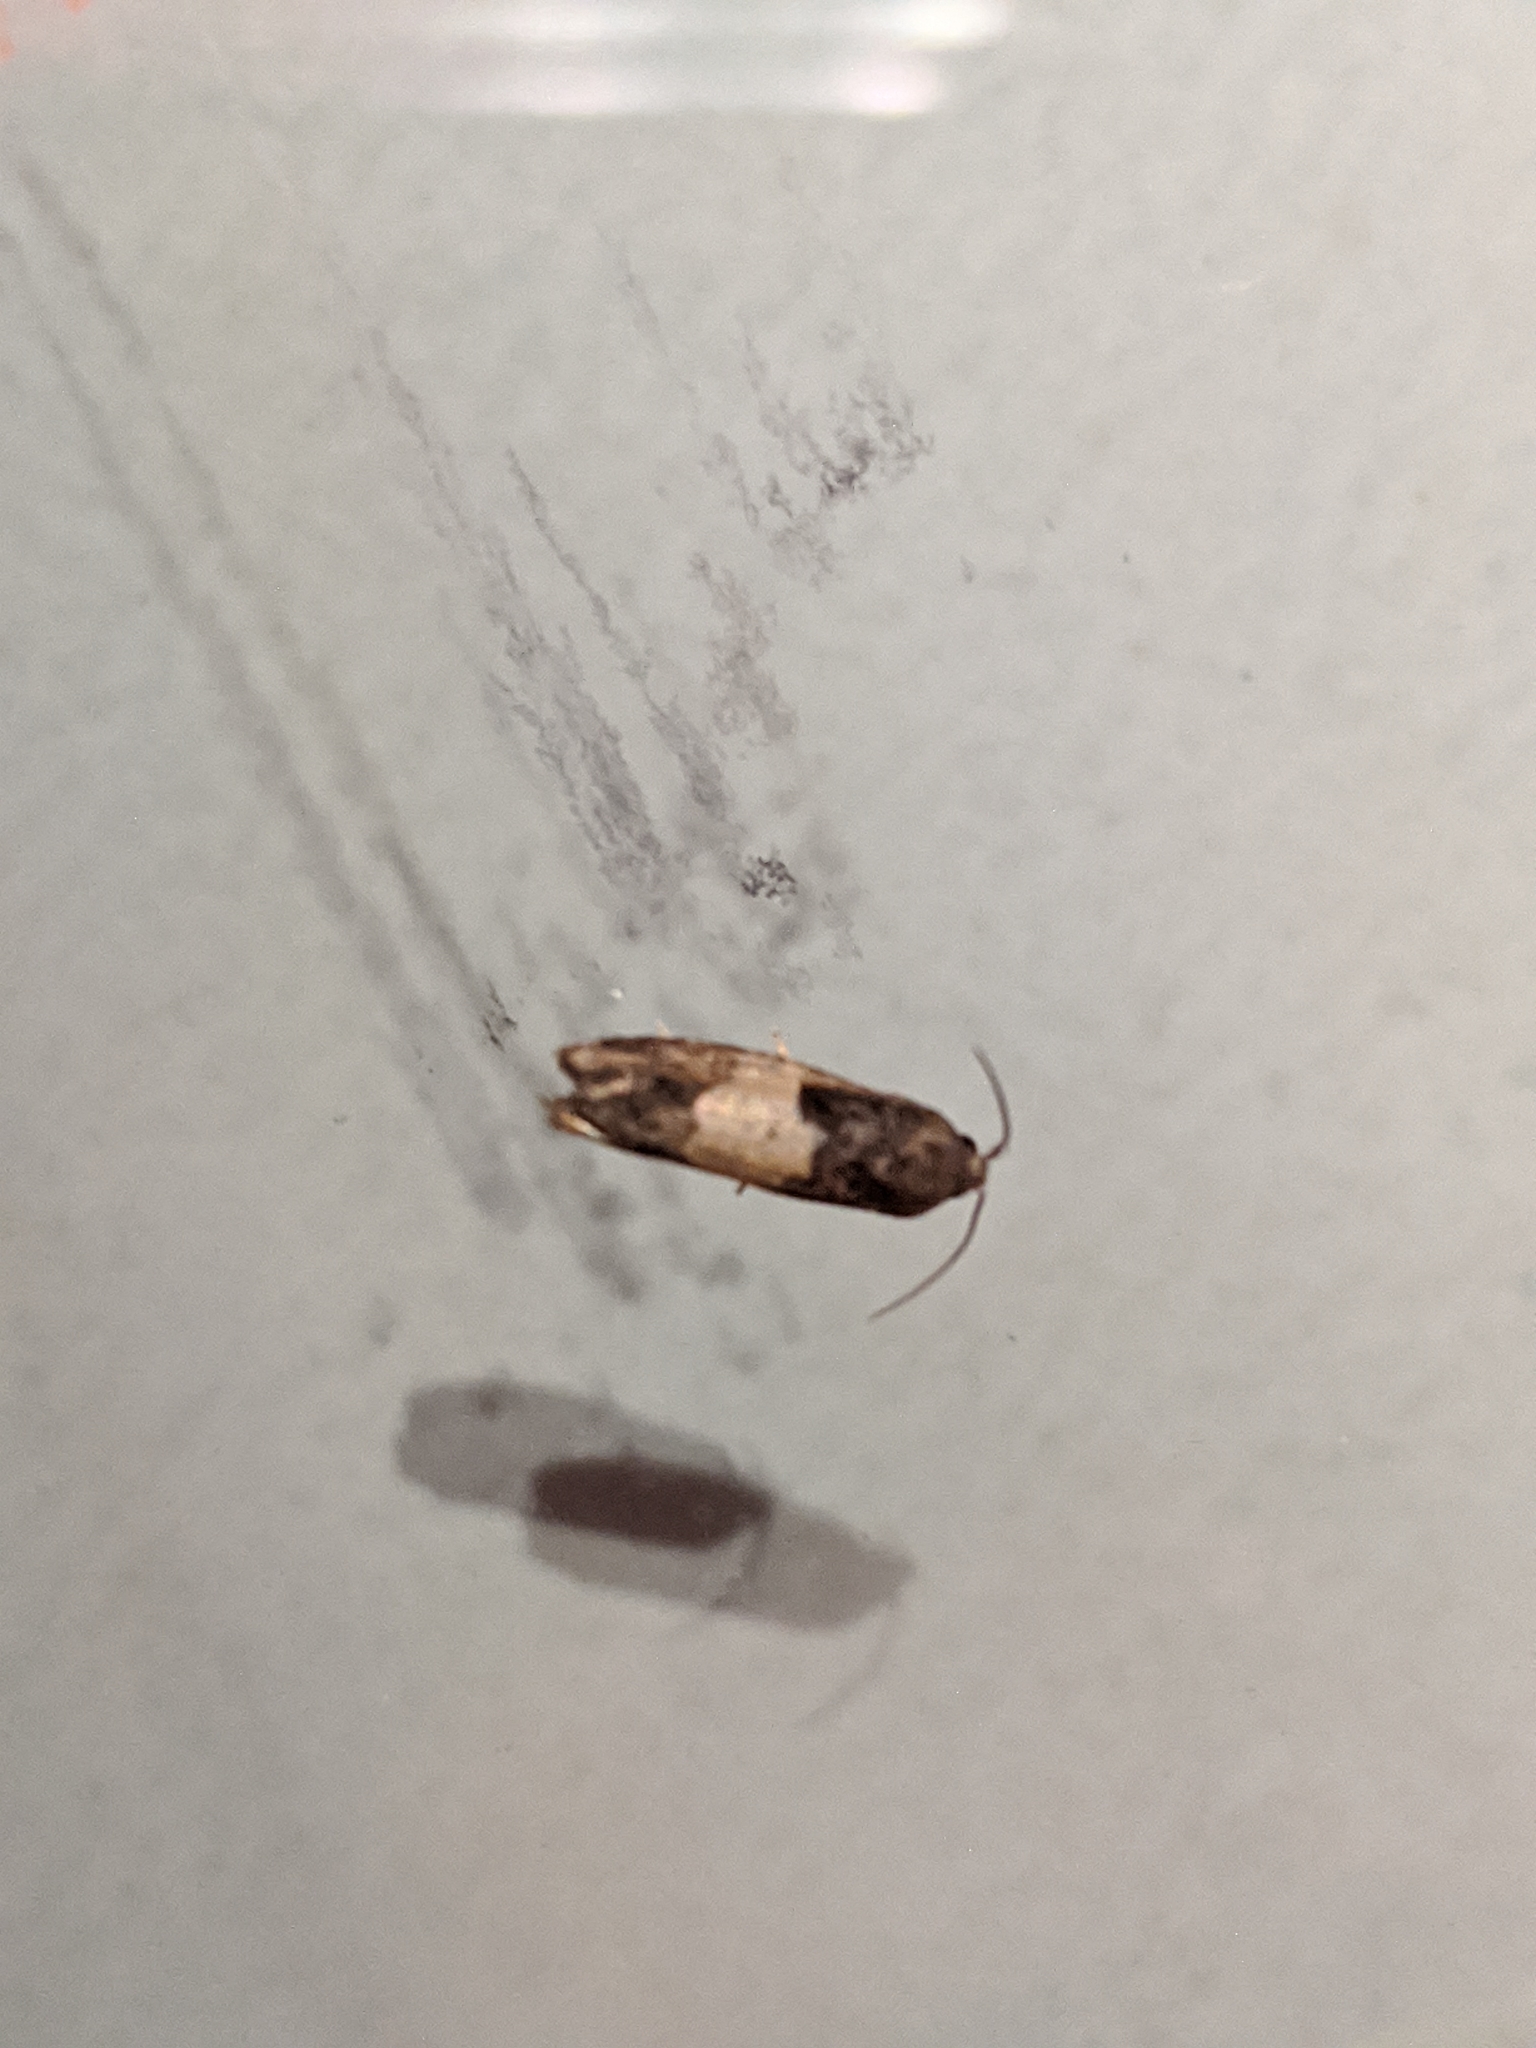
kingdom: Animalia
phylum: Arthropoda
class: Insecta
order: Lepidoptera
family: Tortricidae
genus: Epiblema
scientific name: Epiblema glenni
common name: Glenn's epiblema
